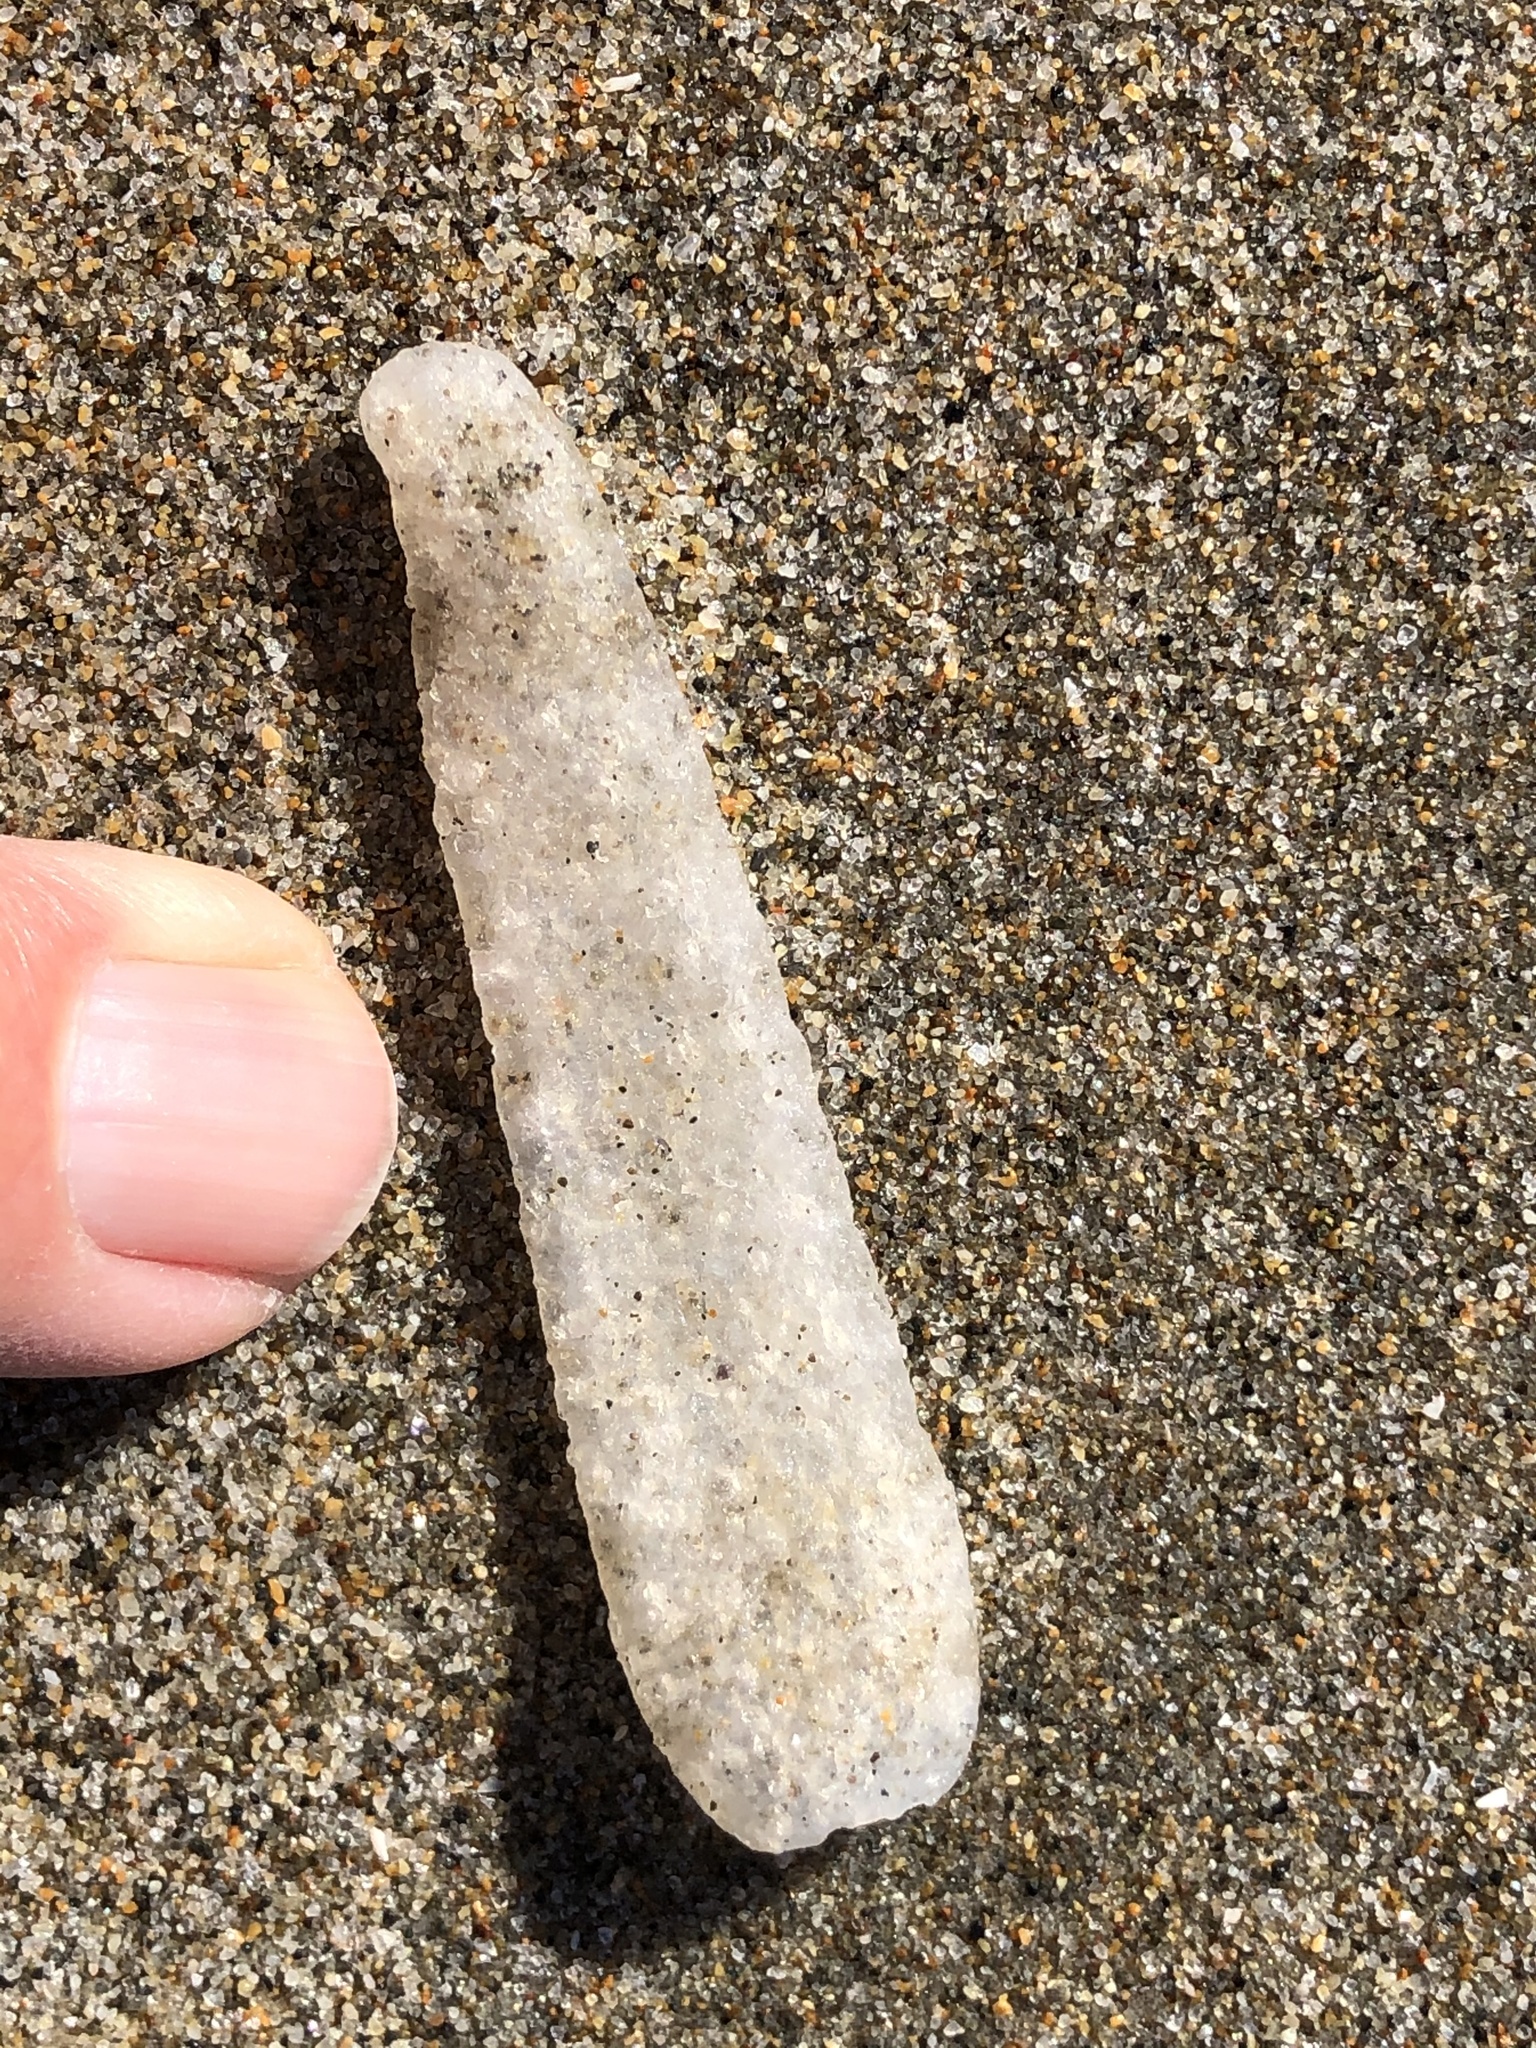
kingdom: Animalia
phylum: Chordata
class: Thaliacea
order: Pyrosomatida
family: Pyrosomatidae
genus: Pyrosoma
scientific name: Pyrosoma atlanticum
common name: Atlantic pyrosomes
